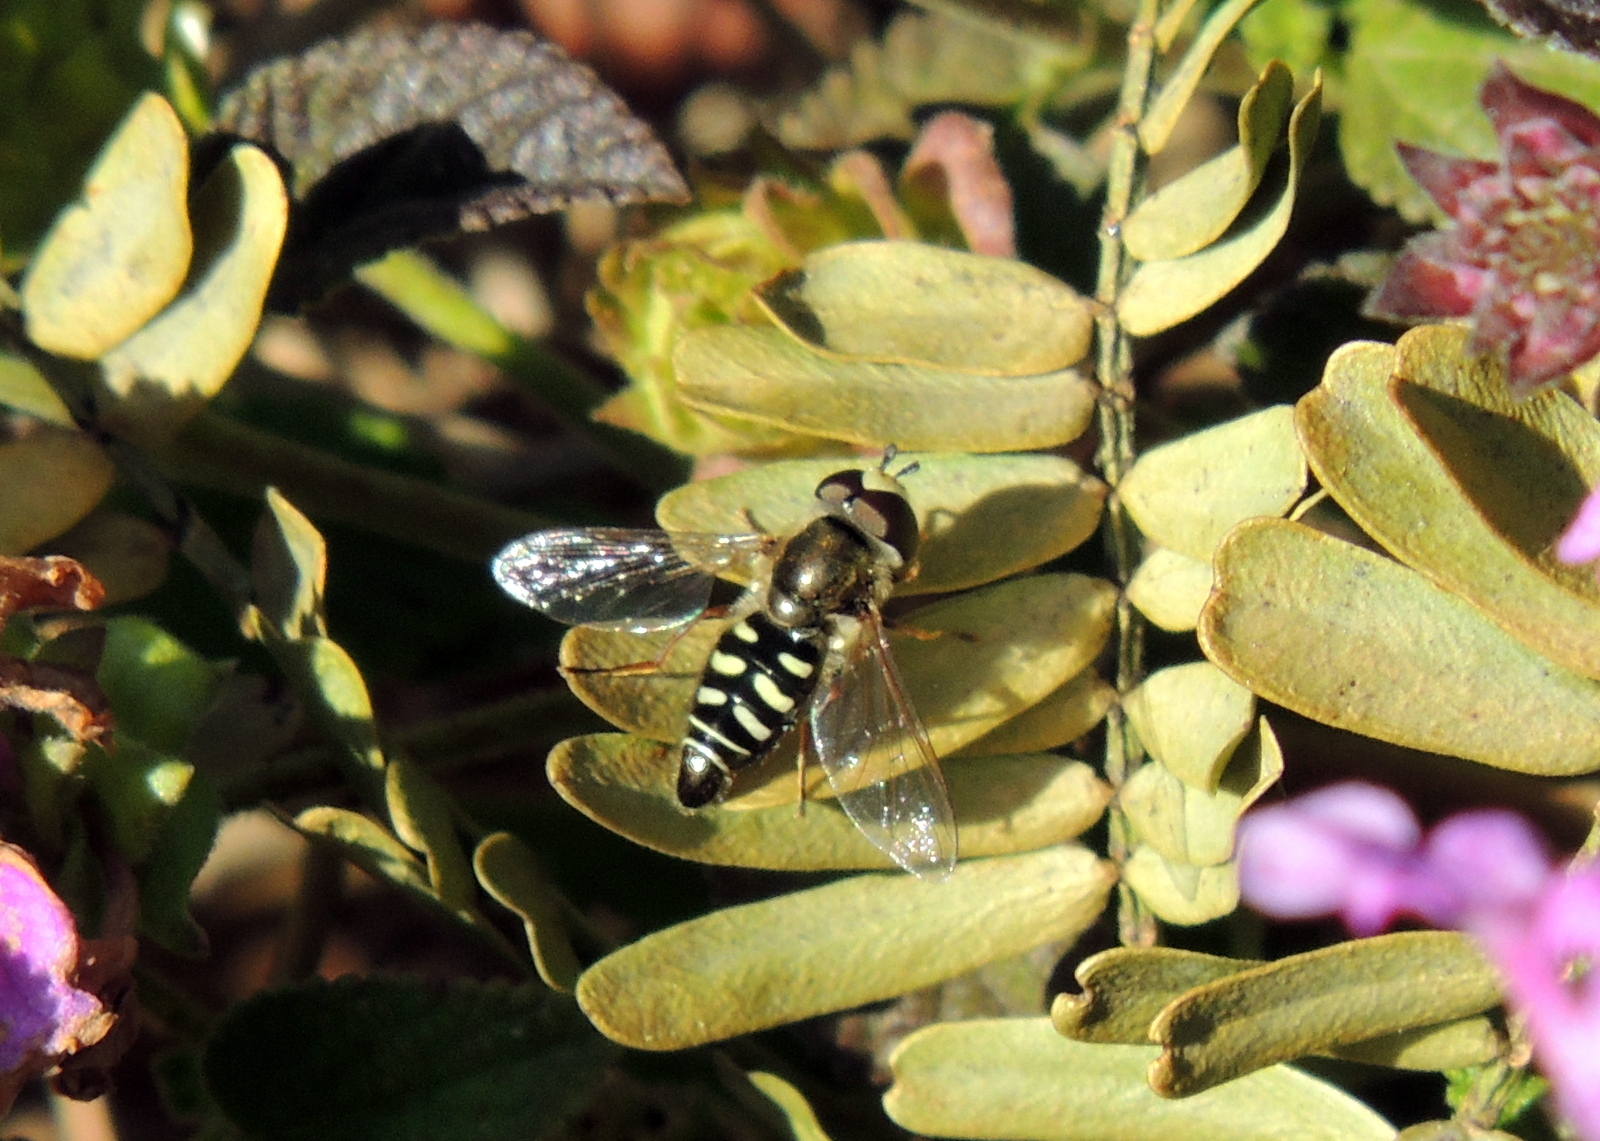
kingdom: Animalia
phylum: Arthropoda
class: Insecta
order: Diptera
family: Syrphidae
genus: Eupeodes
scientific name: Eupeodes volucris
